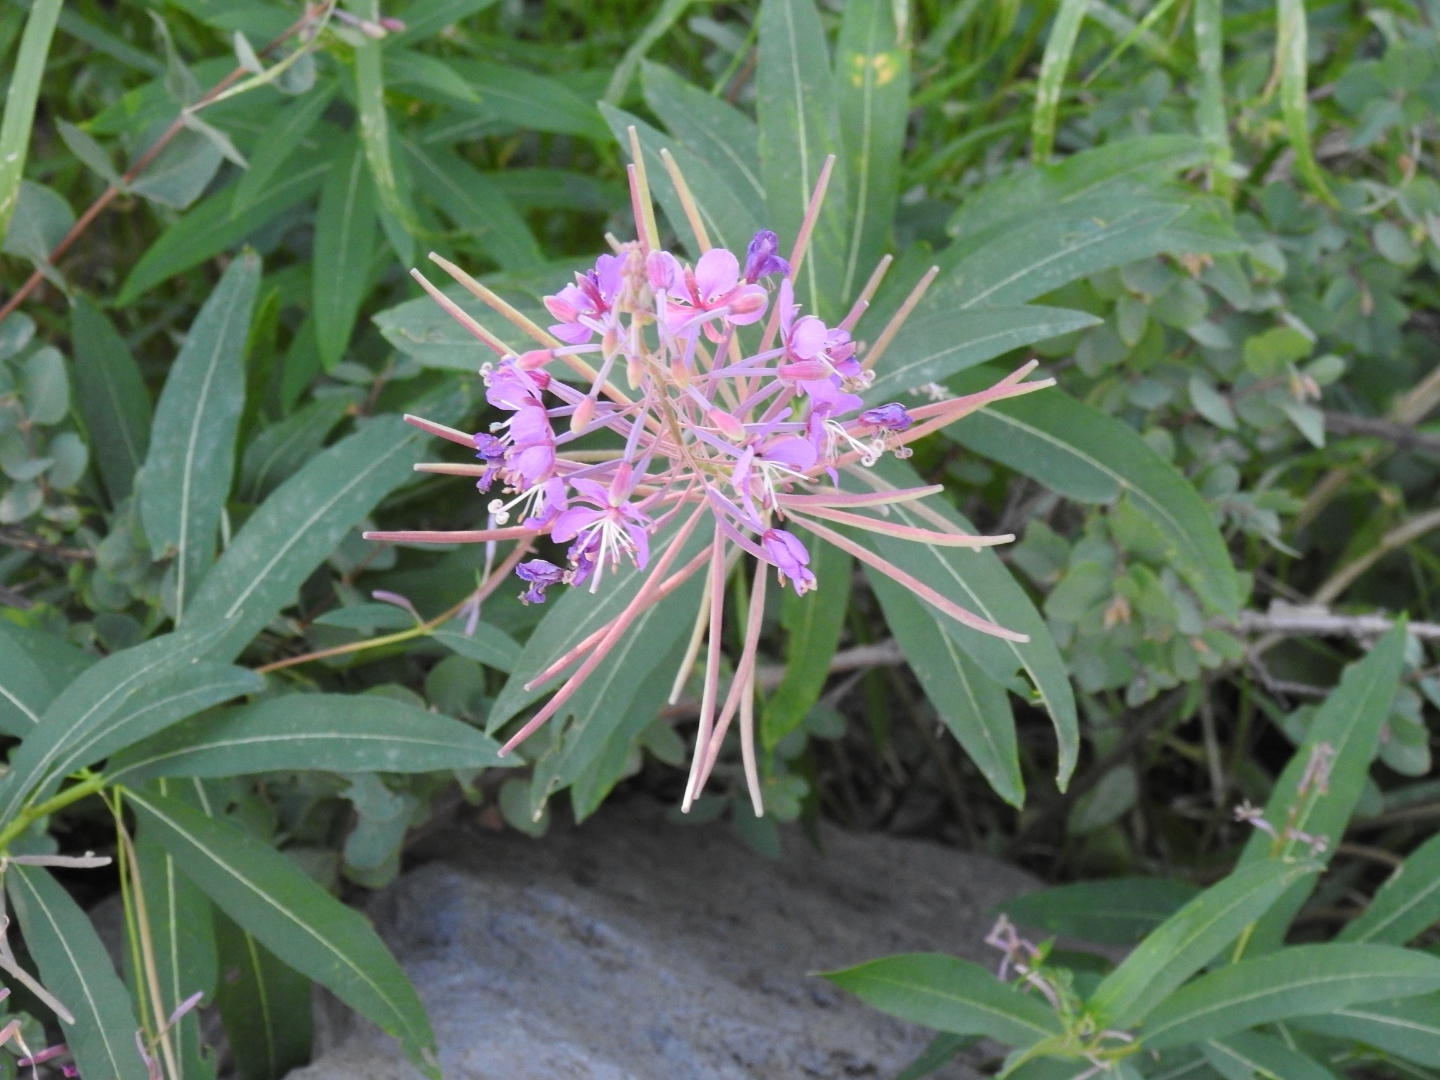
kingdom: Plantae
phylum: Tracheophyta
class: Magnoliopsida
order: Myrtales
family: Onagraceae
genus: Chamaenerion
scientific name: Chamaenerion angustifolium
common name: Fireweed
